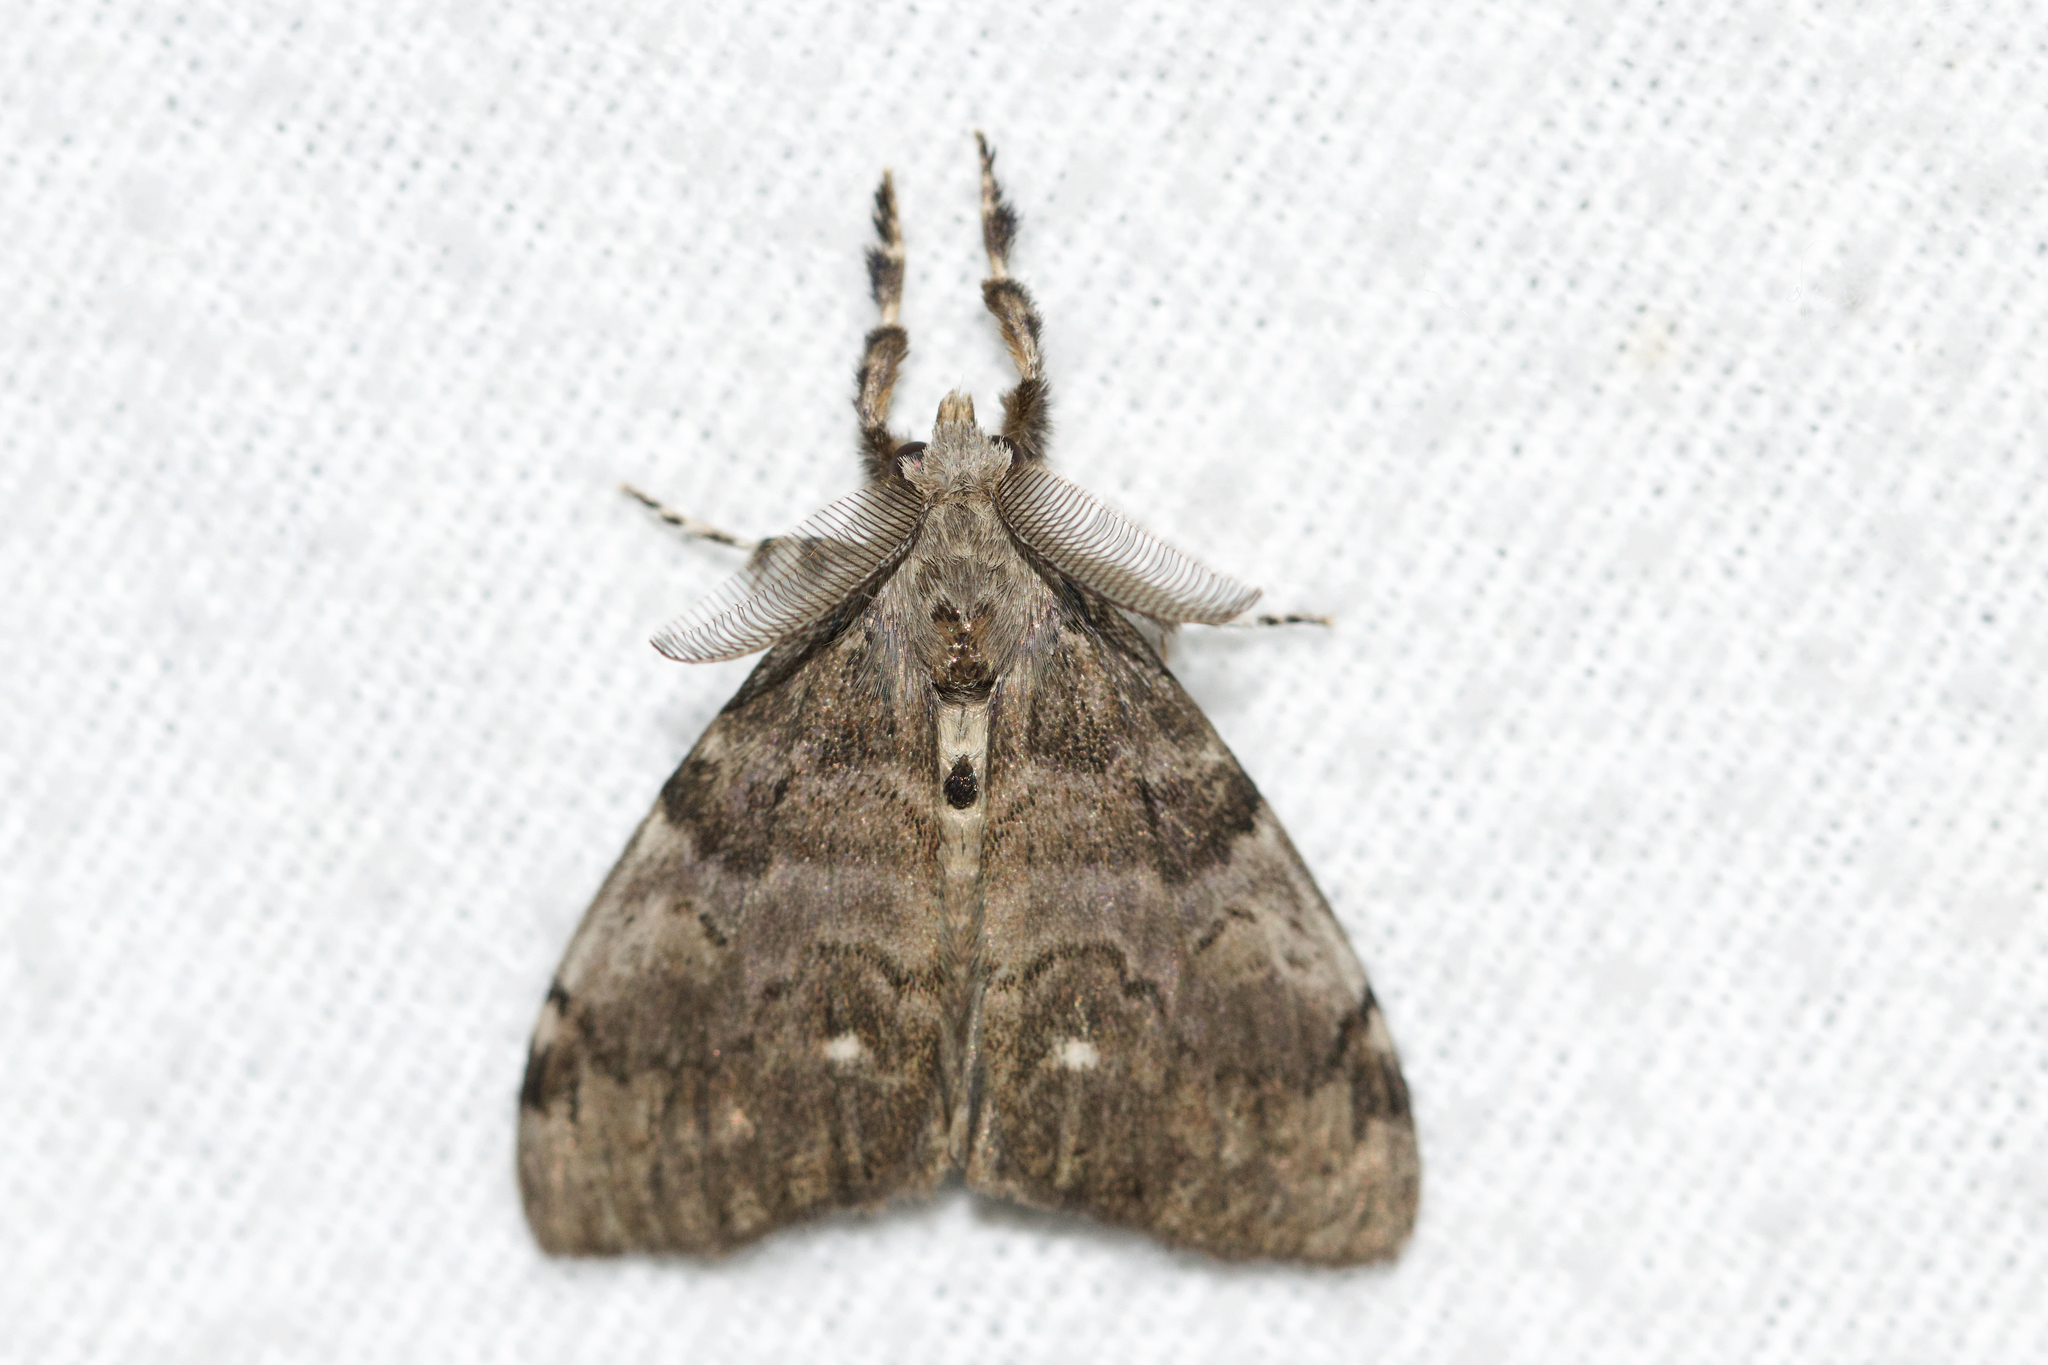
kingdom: Animalia
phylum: Arthropoda
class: Insecta
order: Lepidoptera
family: Erebidae
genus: Orgyia
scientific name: Orgyia leucostigma
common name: White-marked tussock moth
